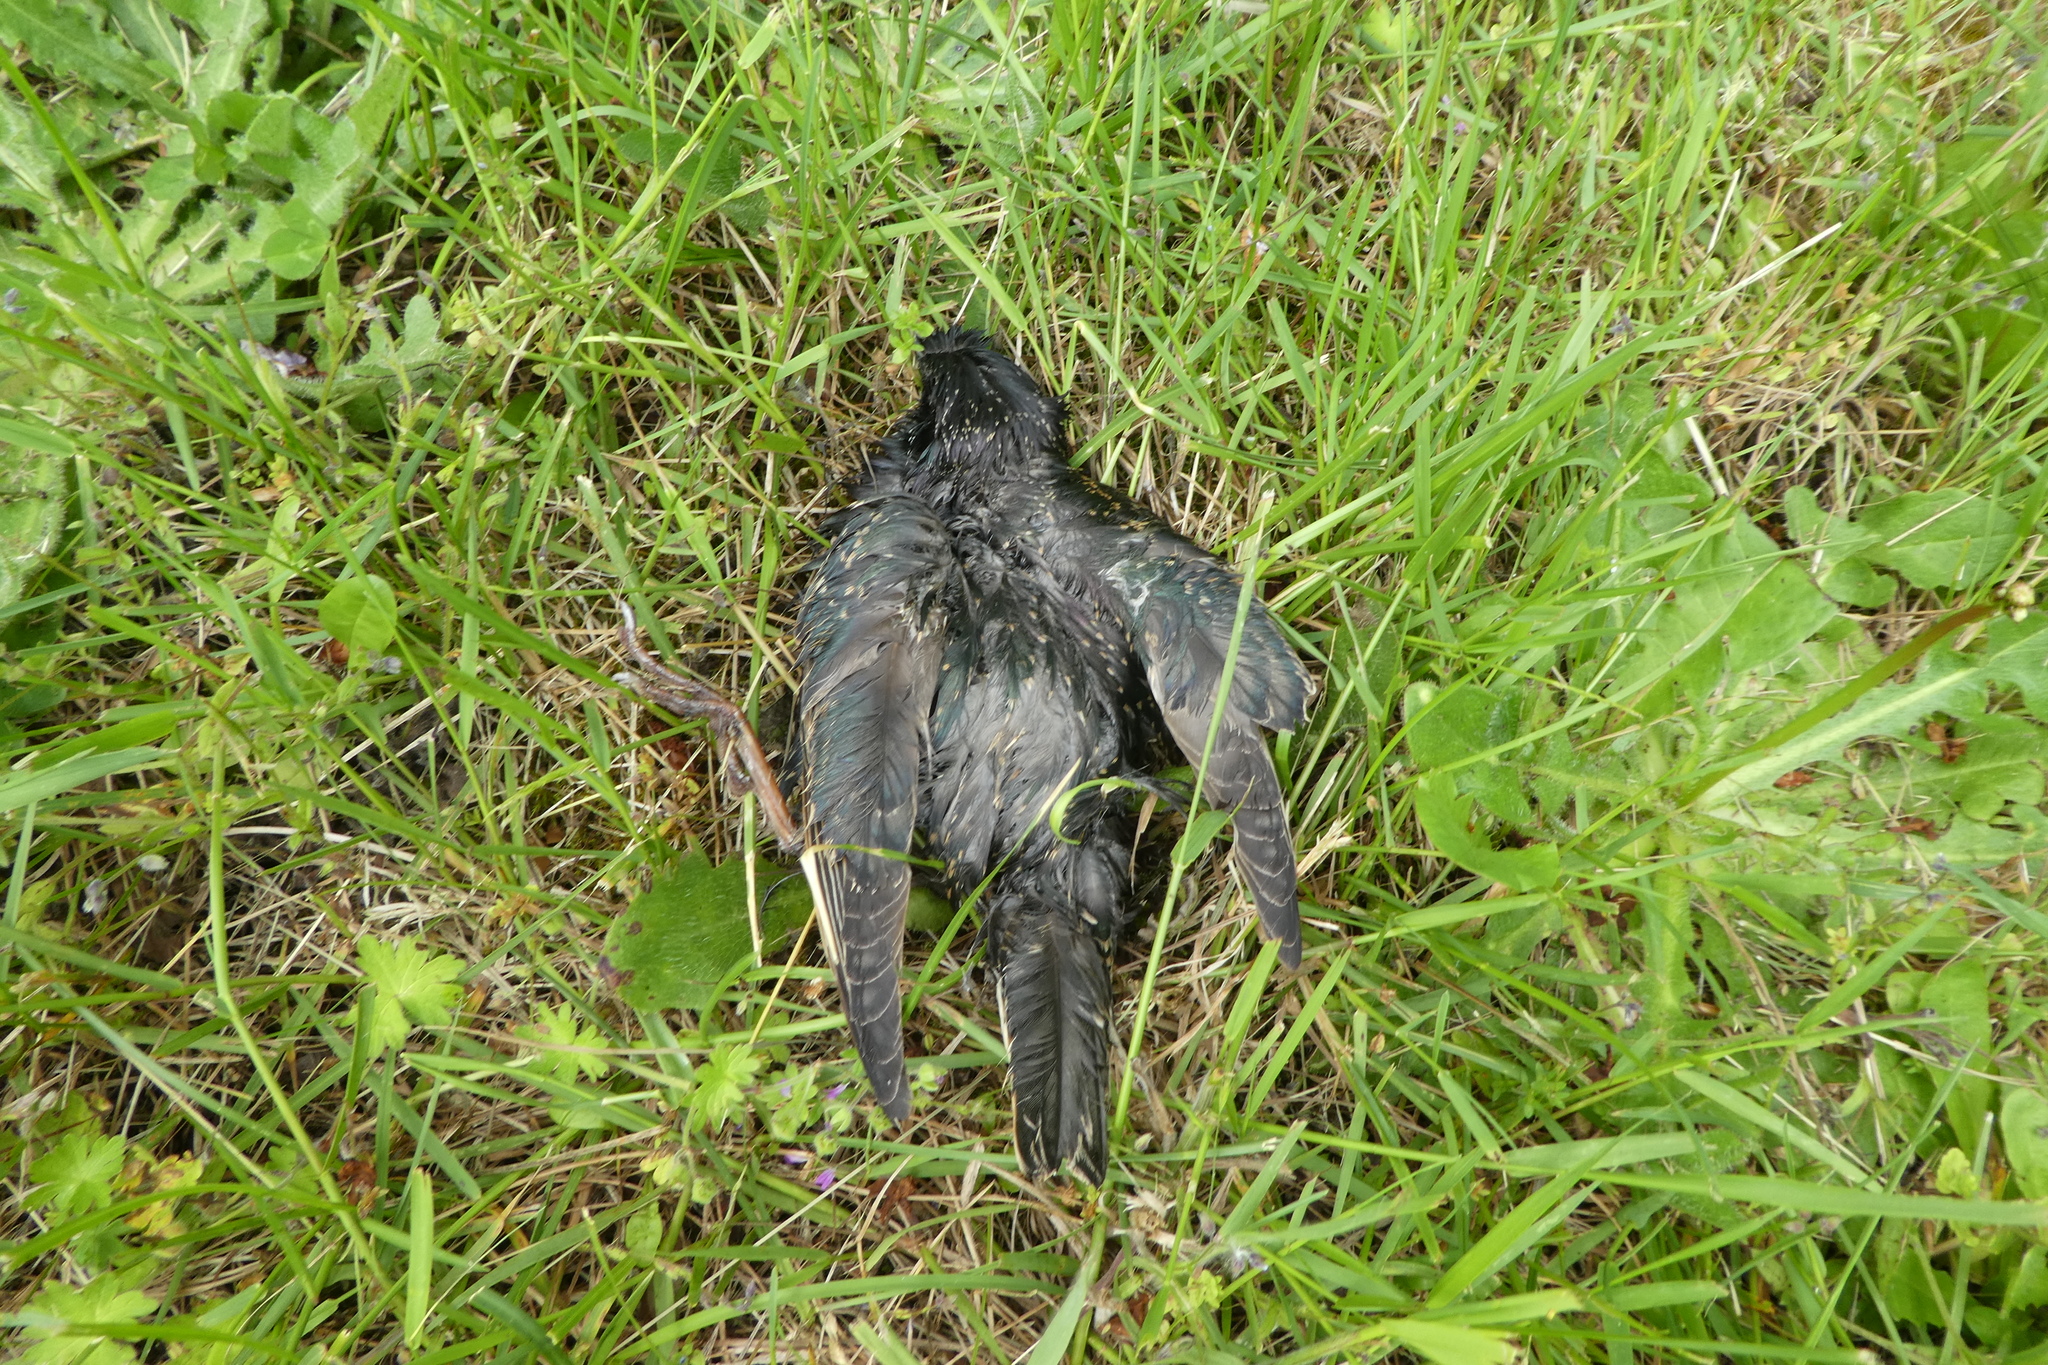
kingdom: Animalia
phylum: Chordata
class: Aves
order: Passeriformes
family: Sturnidae
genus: Sturnus
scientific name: Sturnus vulgaris
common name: Common starling
